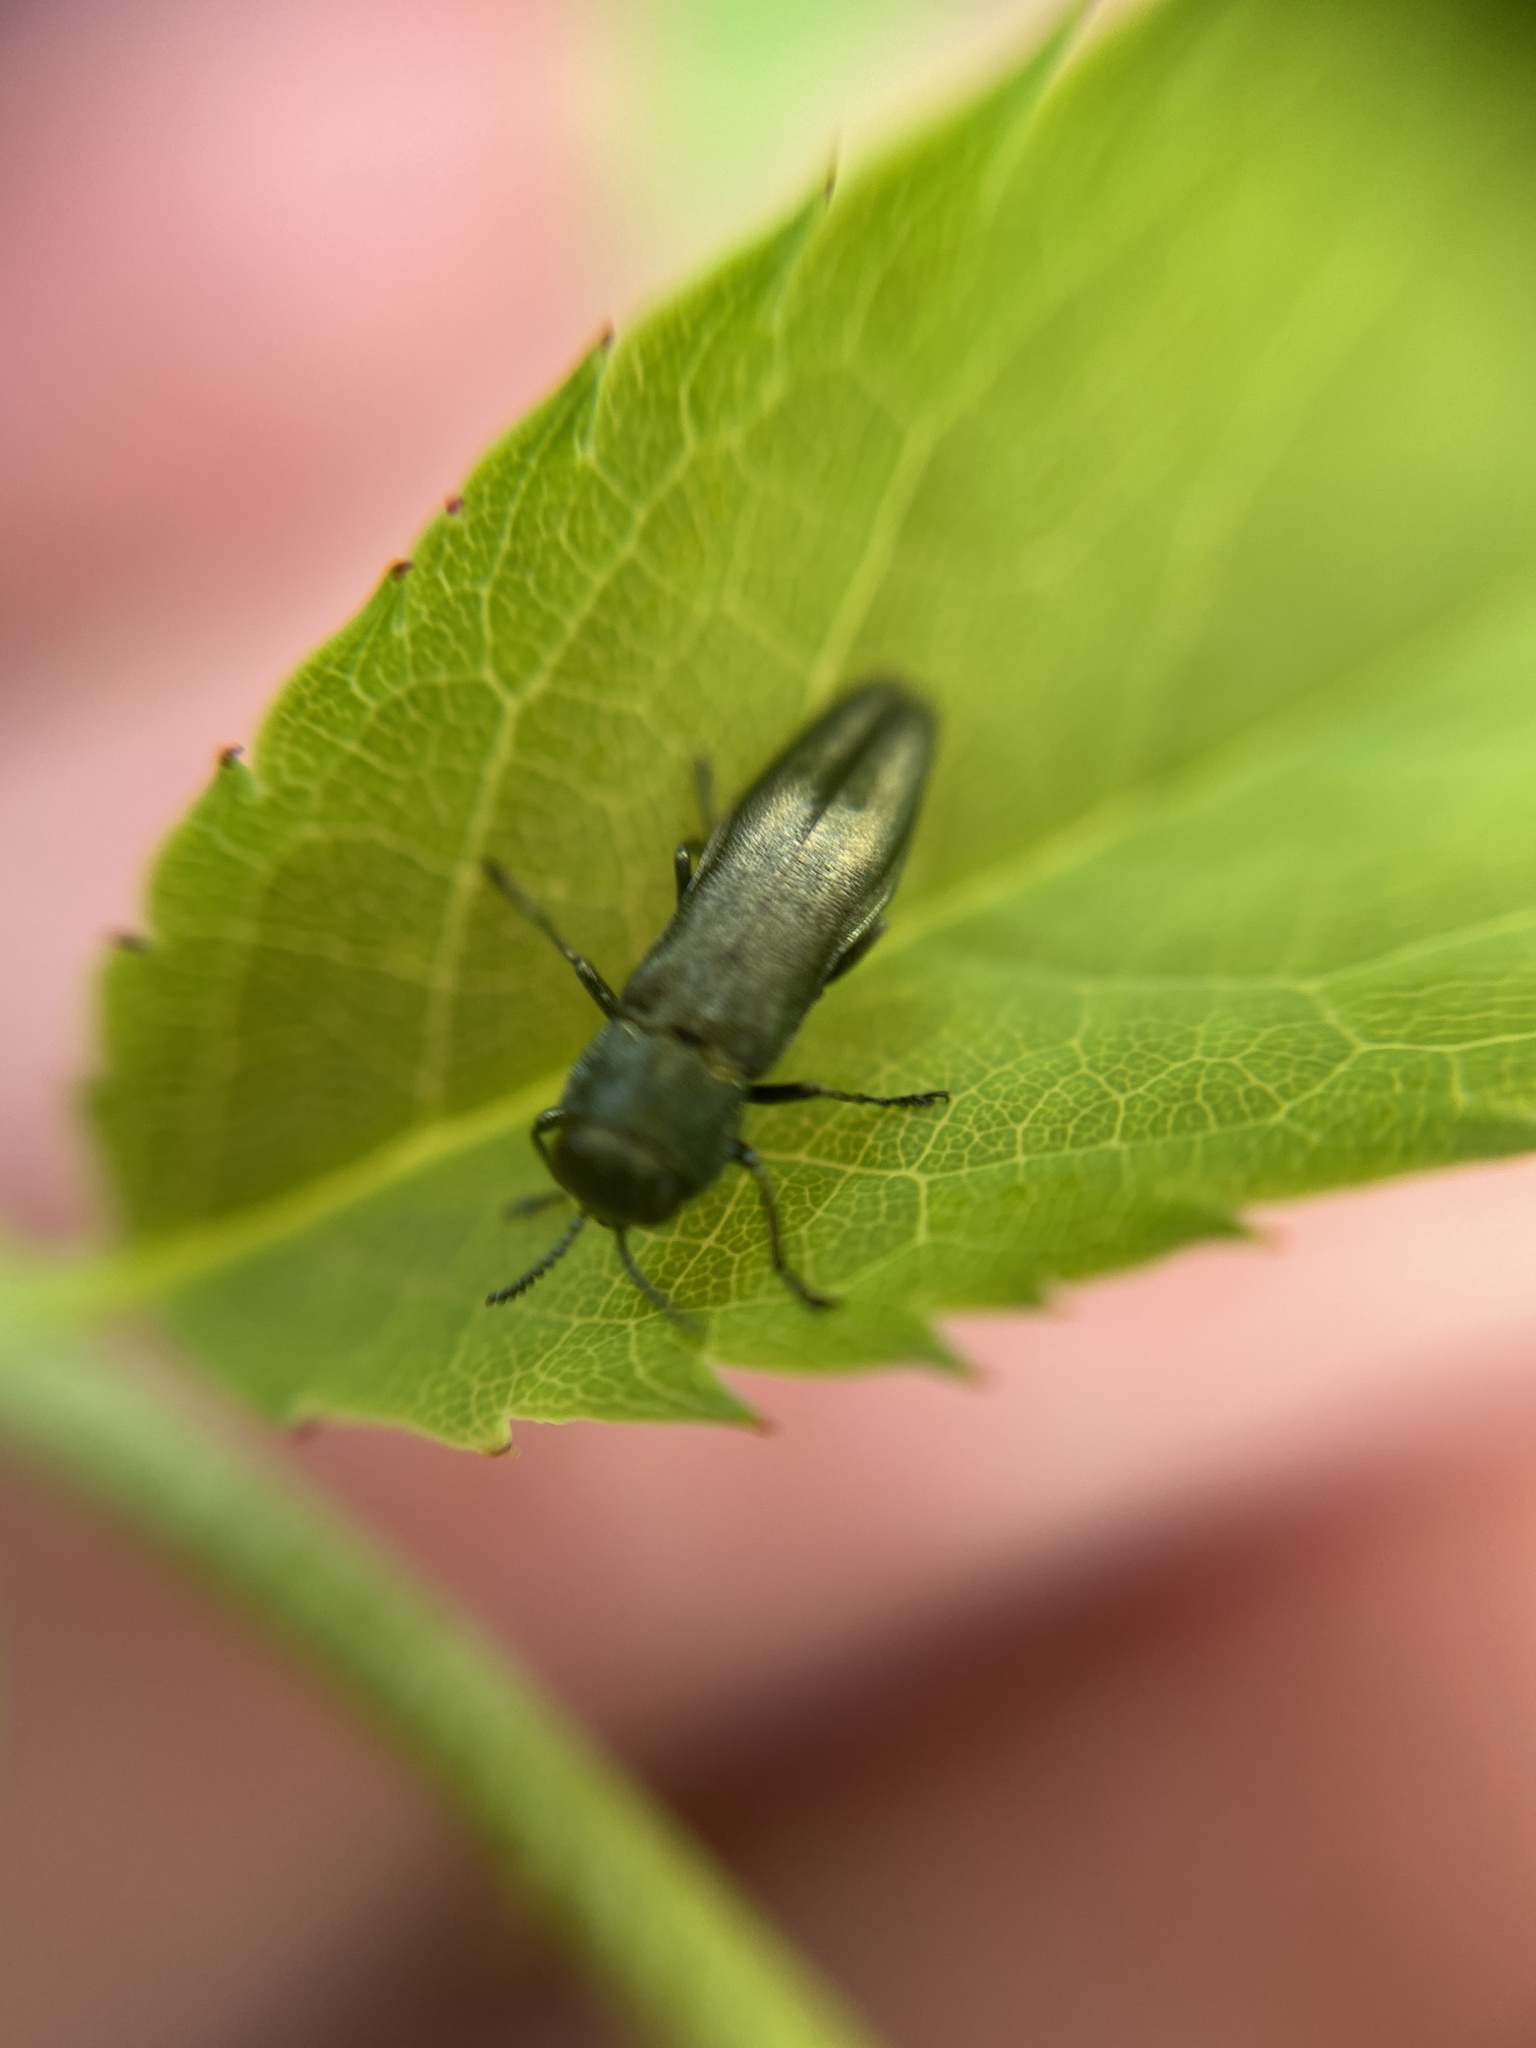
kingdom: Animalia
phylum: Arthropoda
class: Insecta
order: Coleoptera
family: Buprestidae
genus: Agrilus
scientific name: Agrilus
